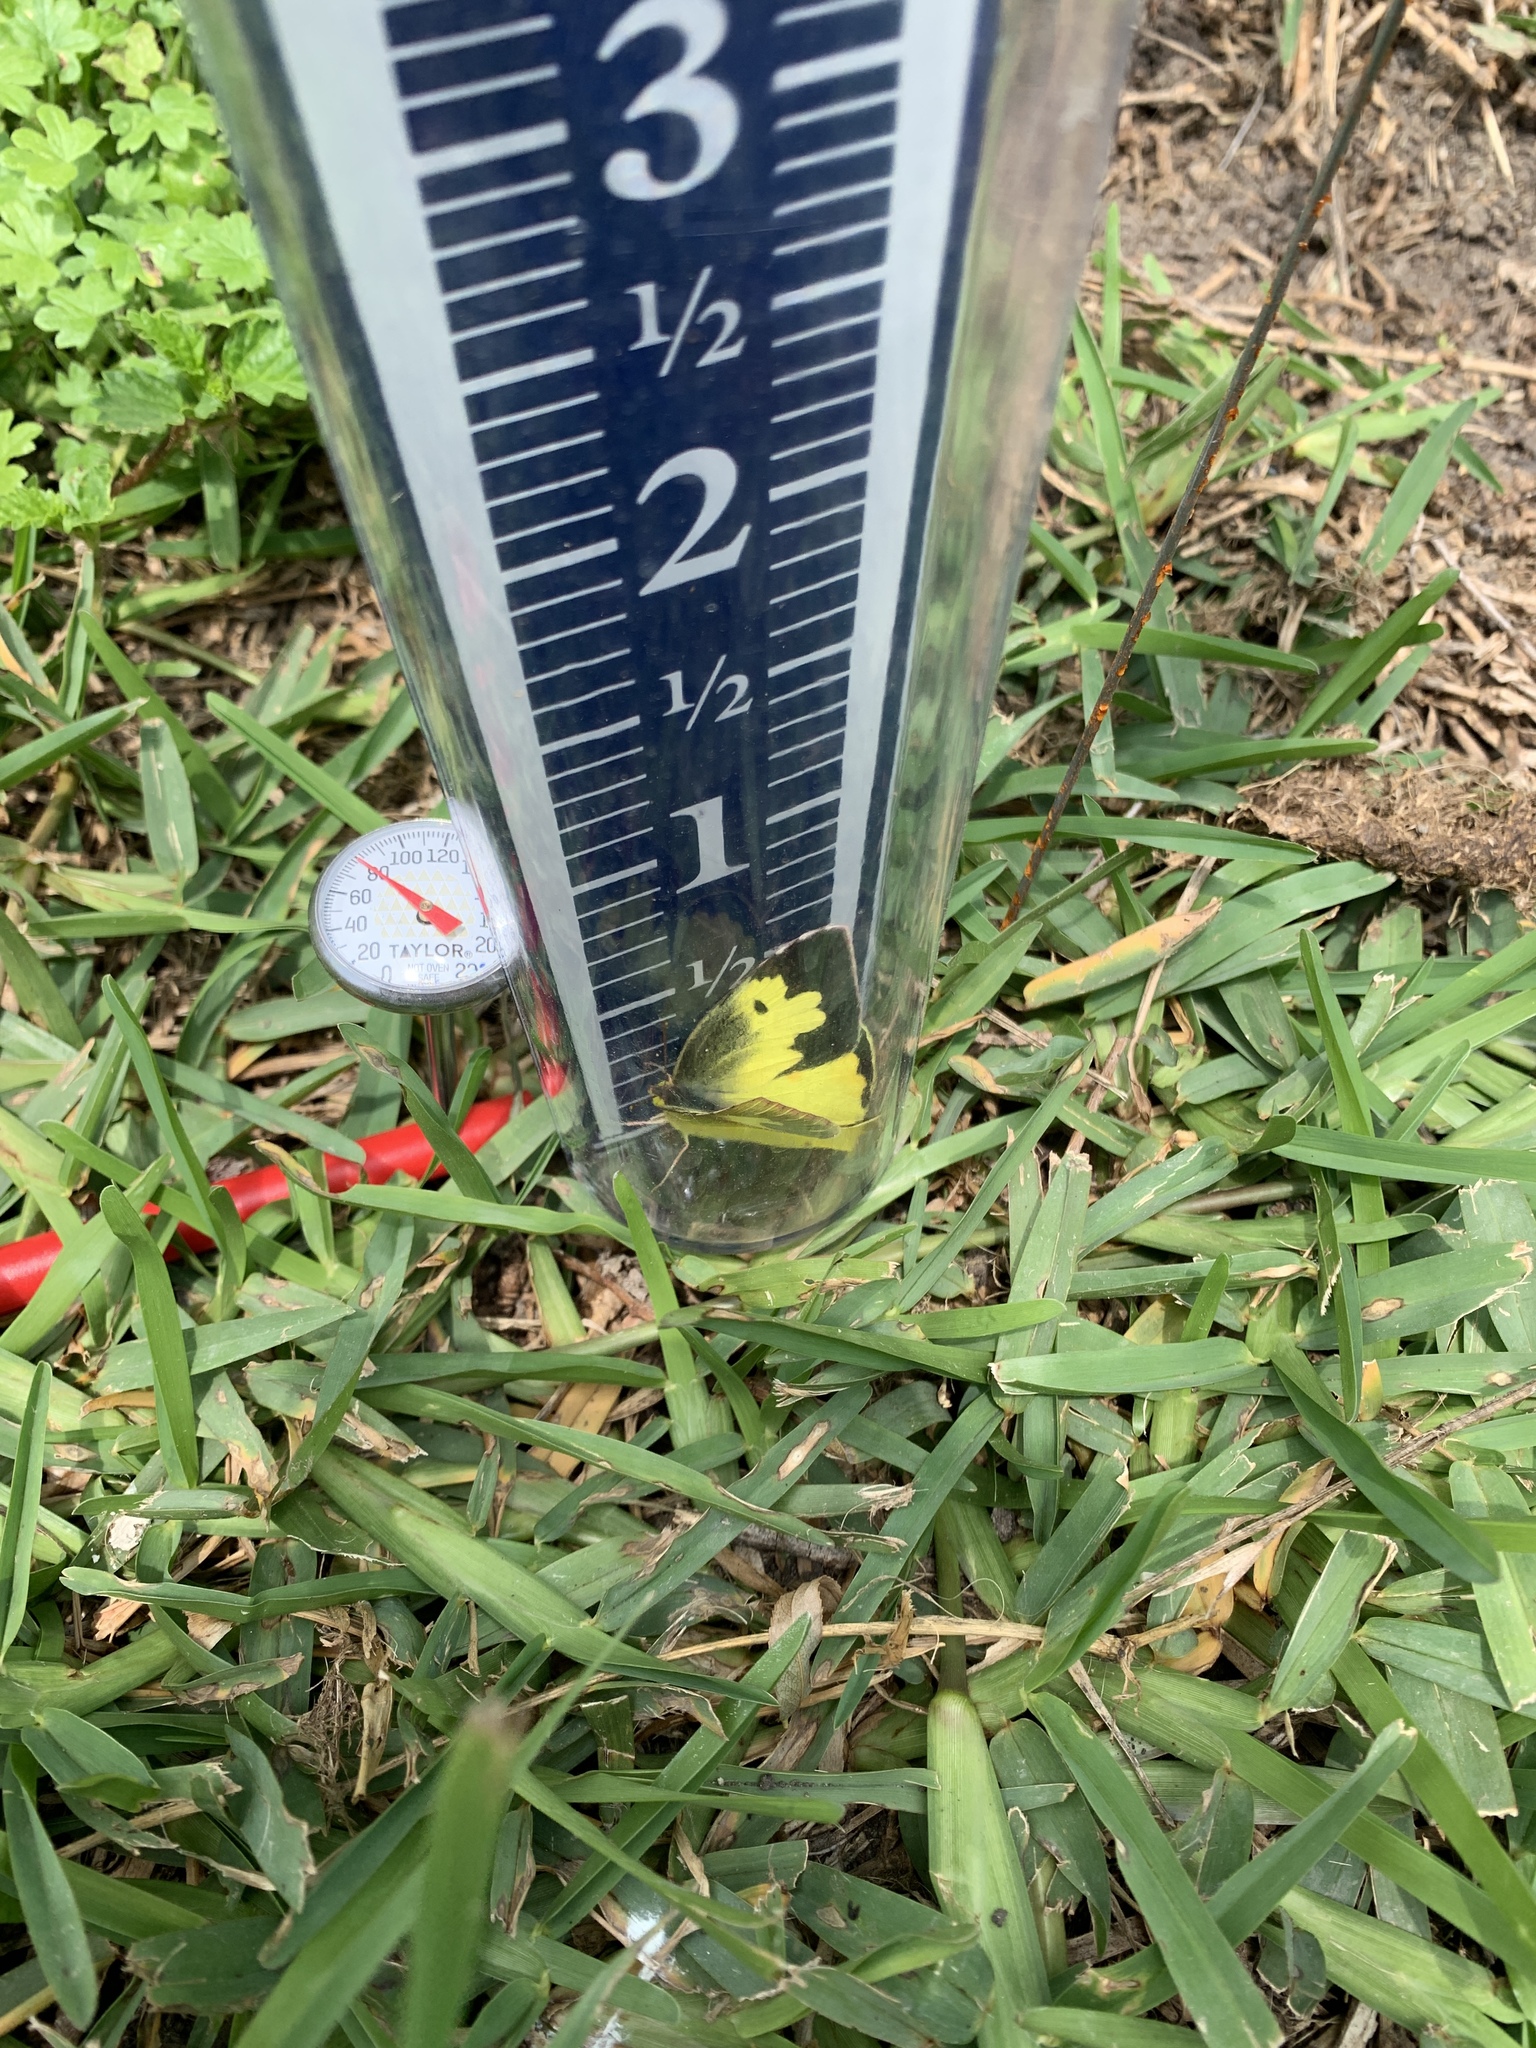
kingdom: Animalia
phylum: Arthropoda
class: Insecta
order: Lepidoptera
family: Pieridae
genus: Zerene
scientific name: Zerene cesonia
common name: Southern dogface
